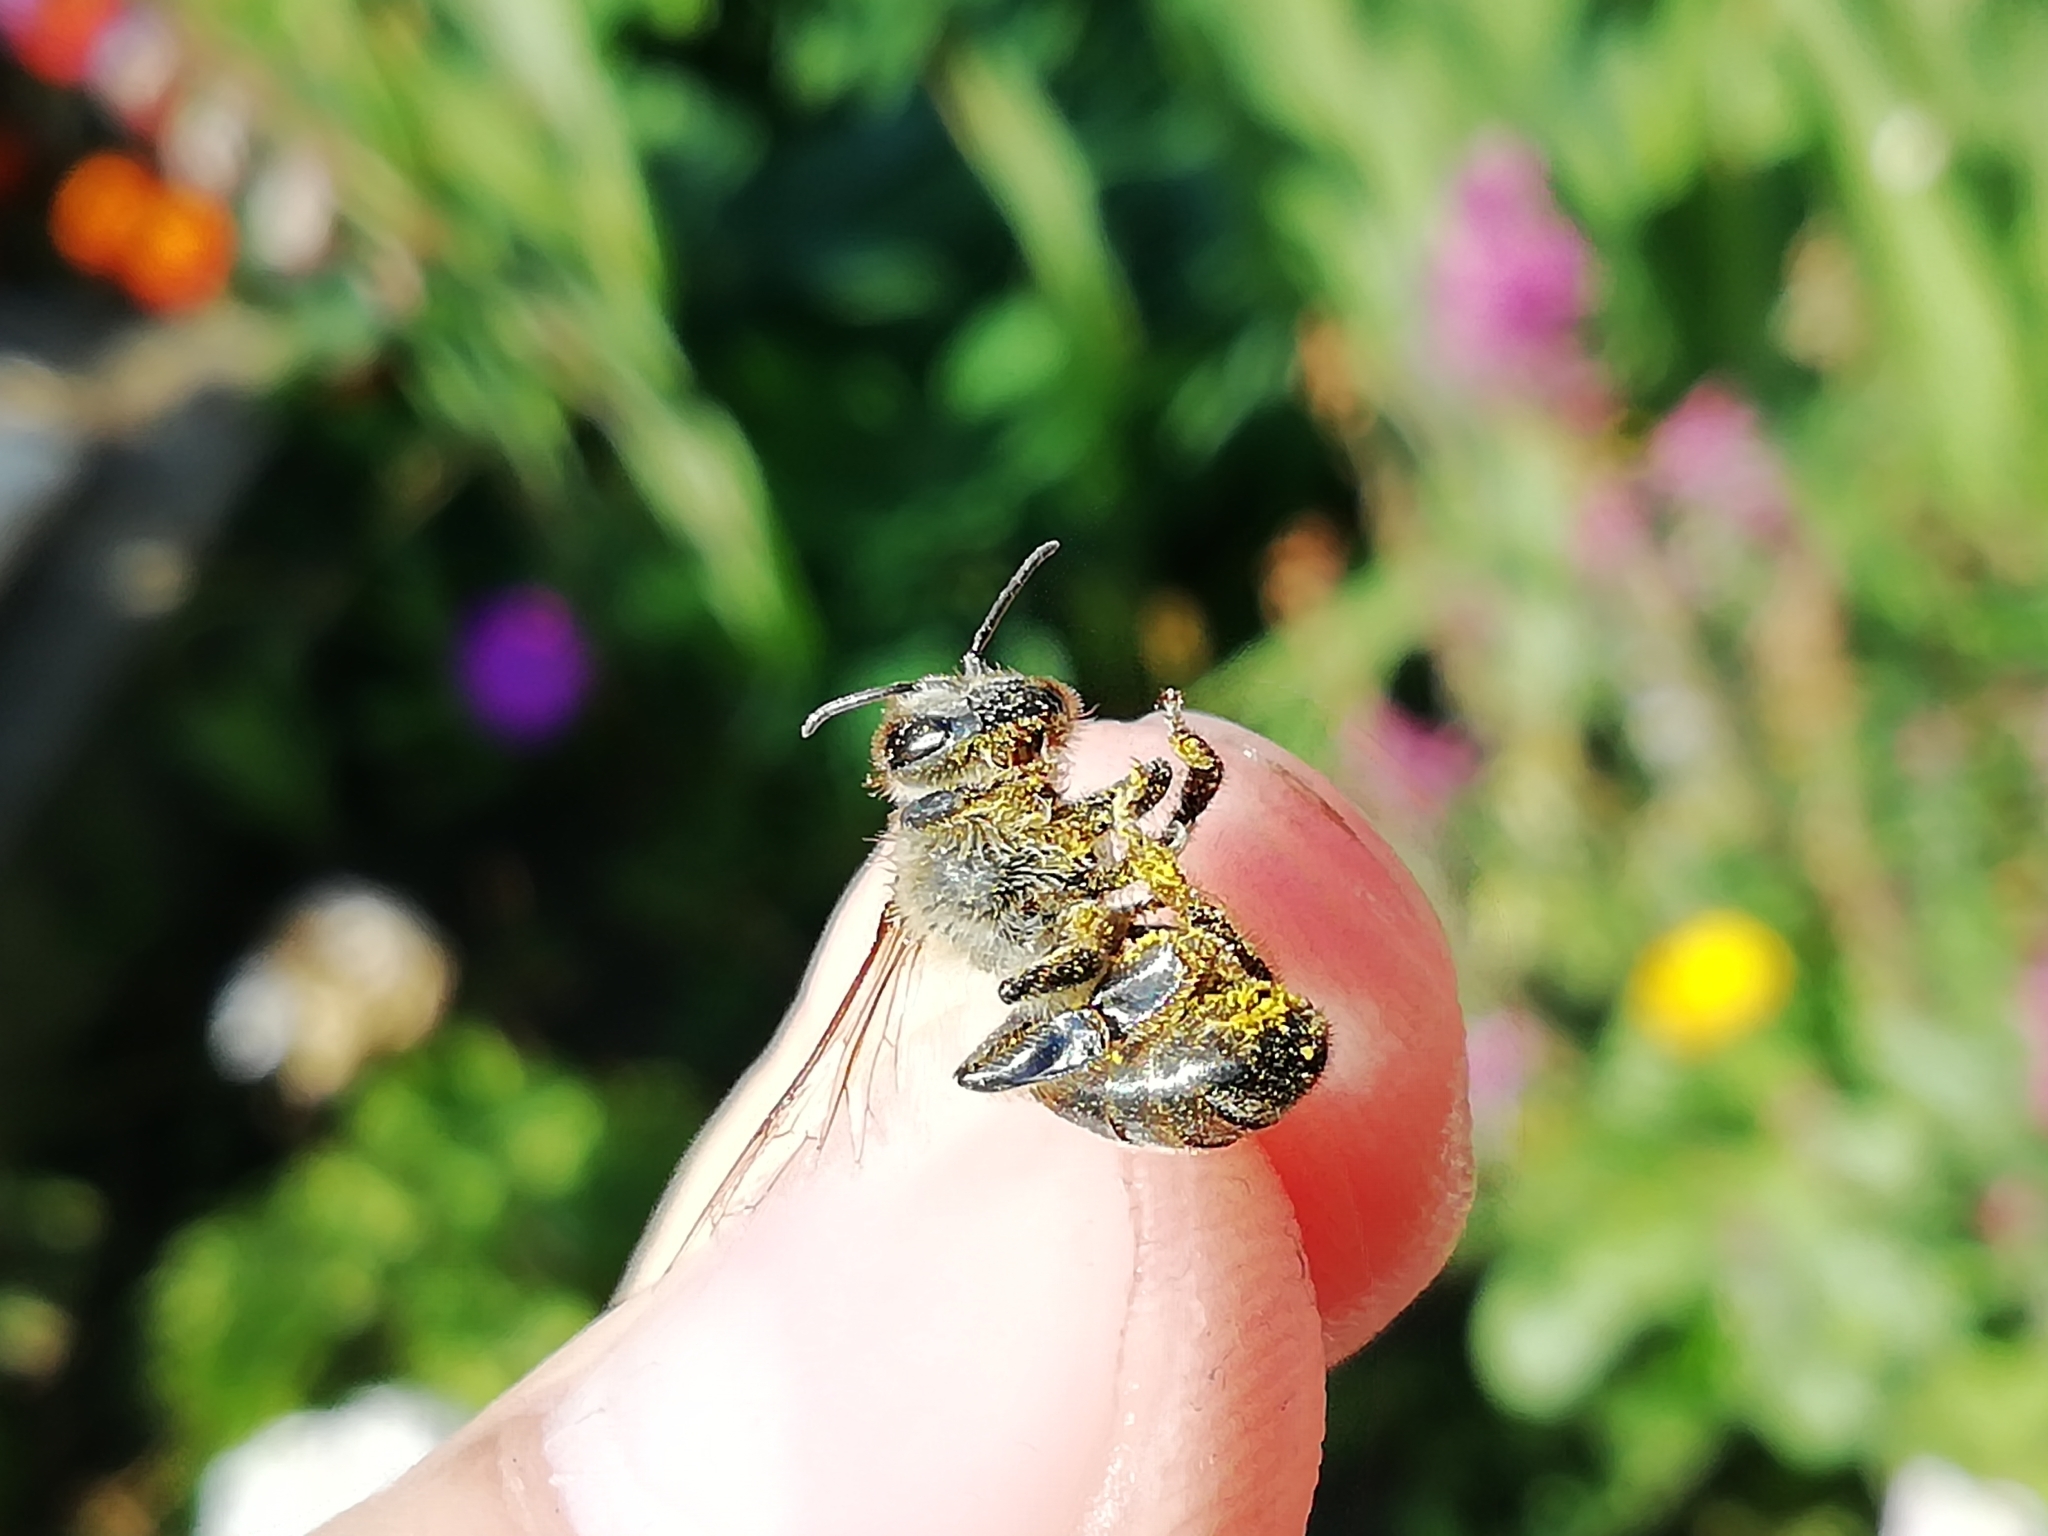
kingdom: Animalia
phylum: Arthropoda
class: Insecta
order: Hymenoptera
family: Apidae
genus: Apis
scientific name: Apis mellifera
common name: Honey bee
